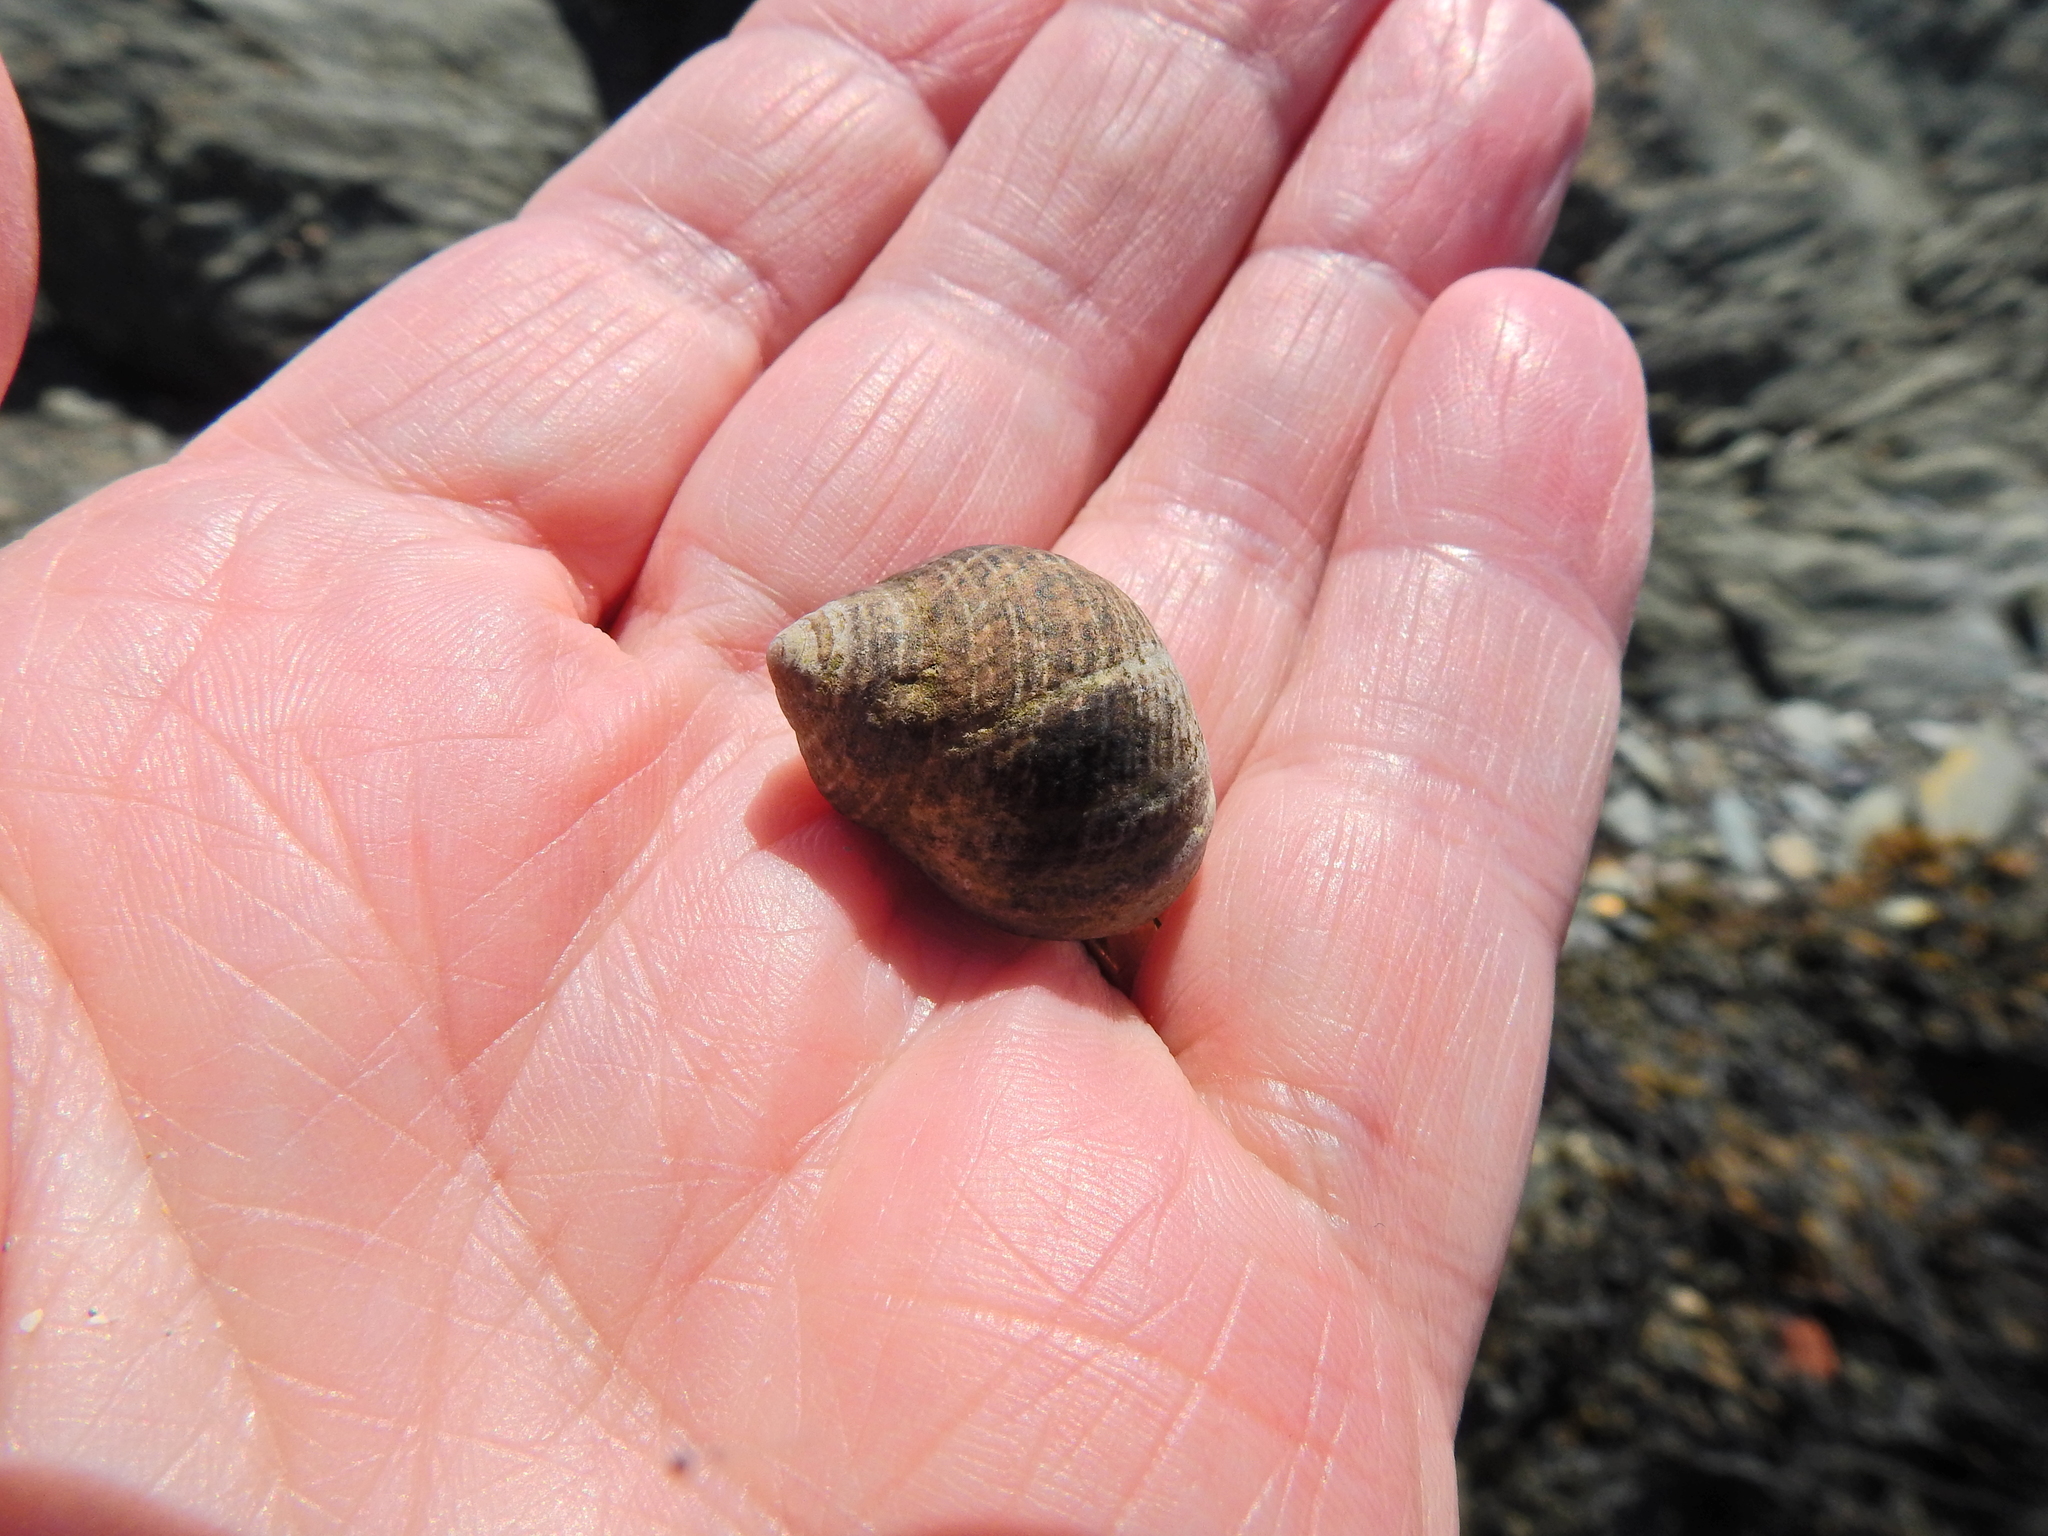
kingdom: Animalia
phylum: Mollusca
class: Gastropoda
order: Littorinimorpha
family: Littorinidae
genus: Littorina
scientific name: Littorina littorea
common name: Common periwinkle
